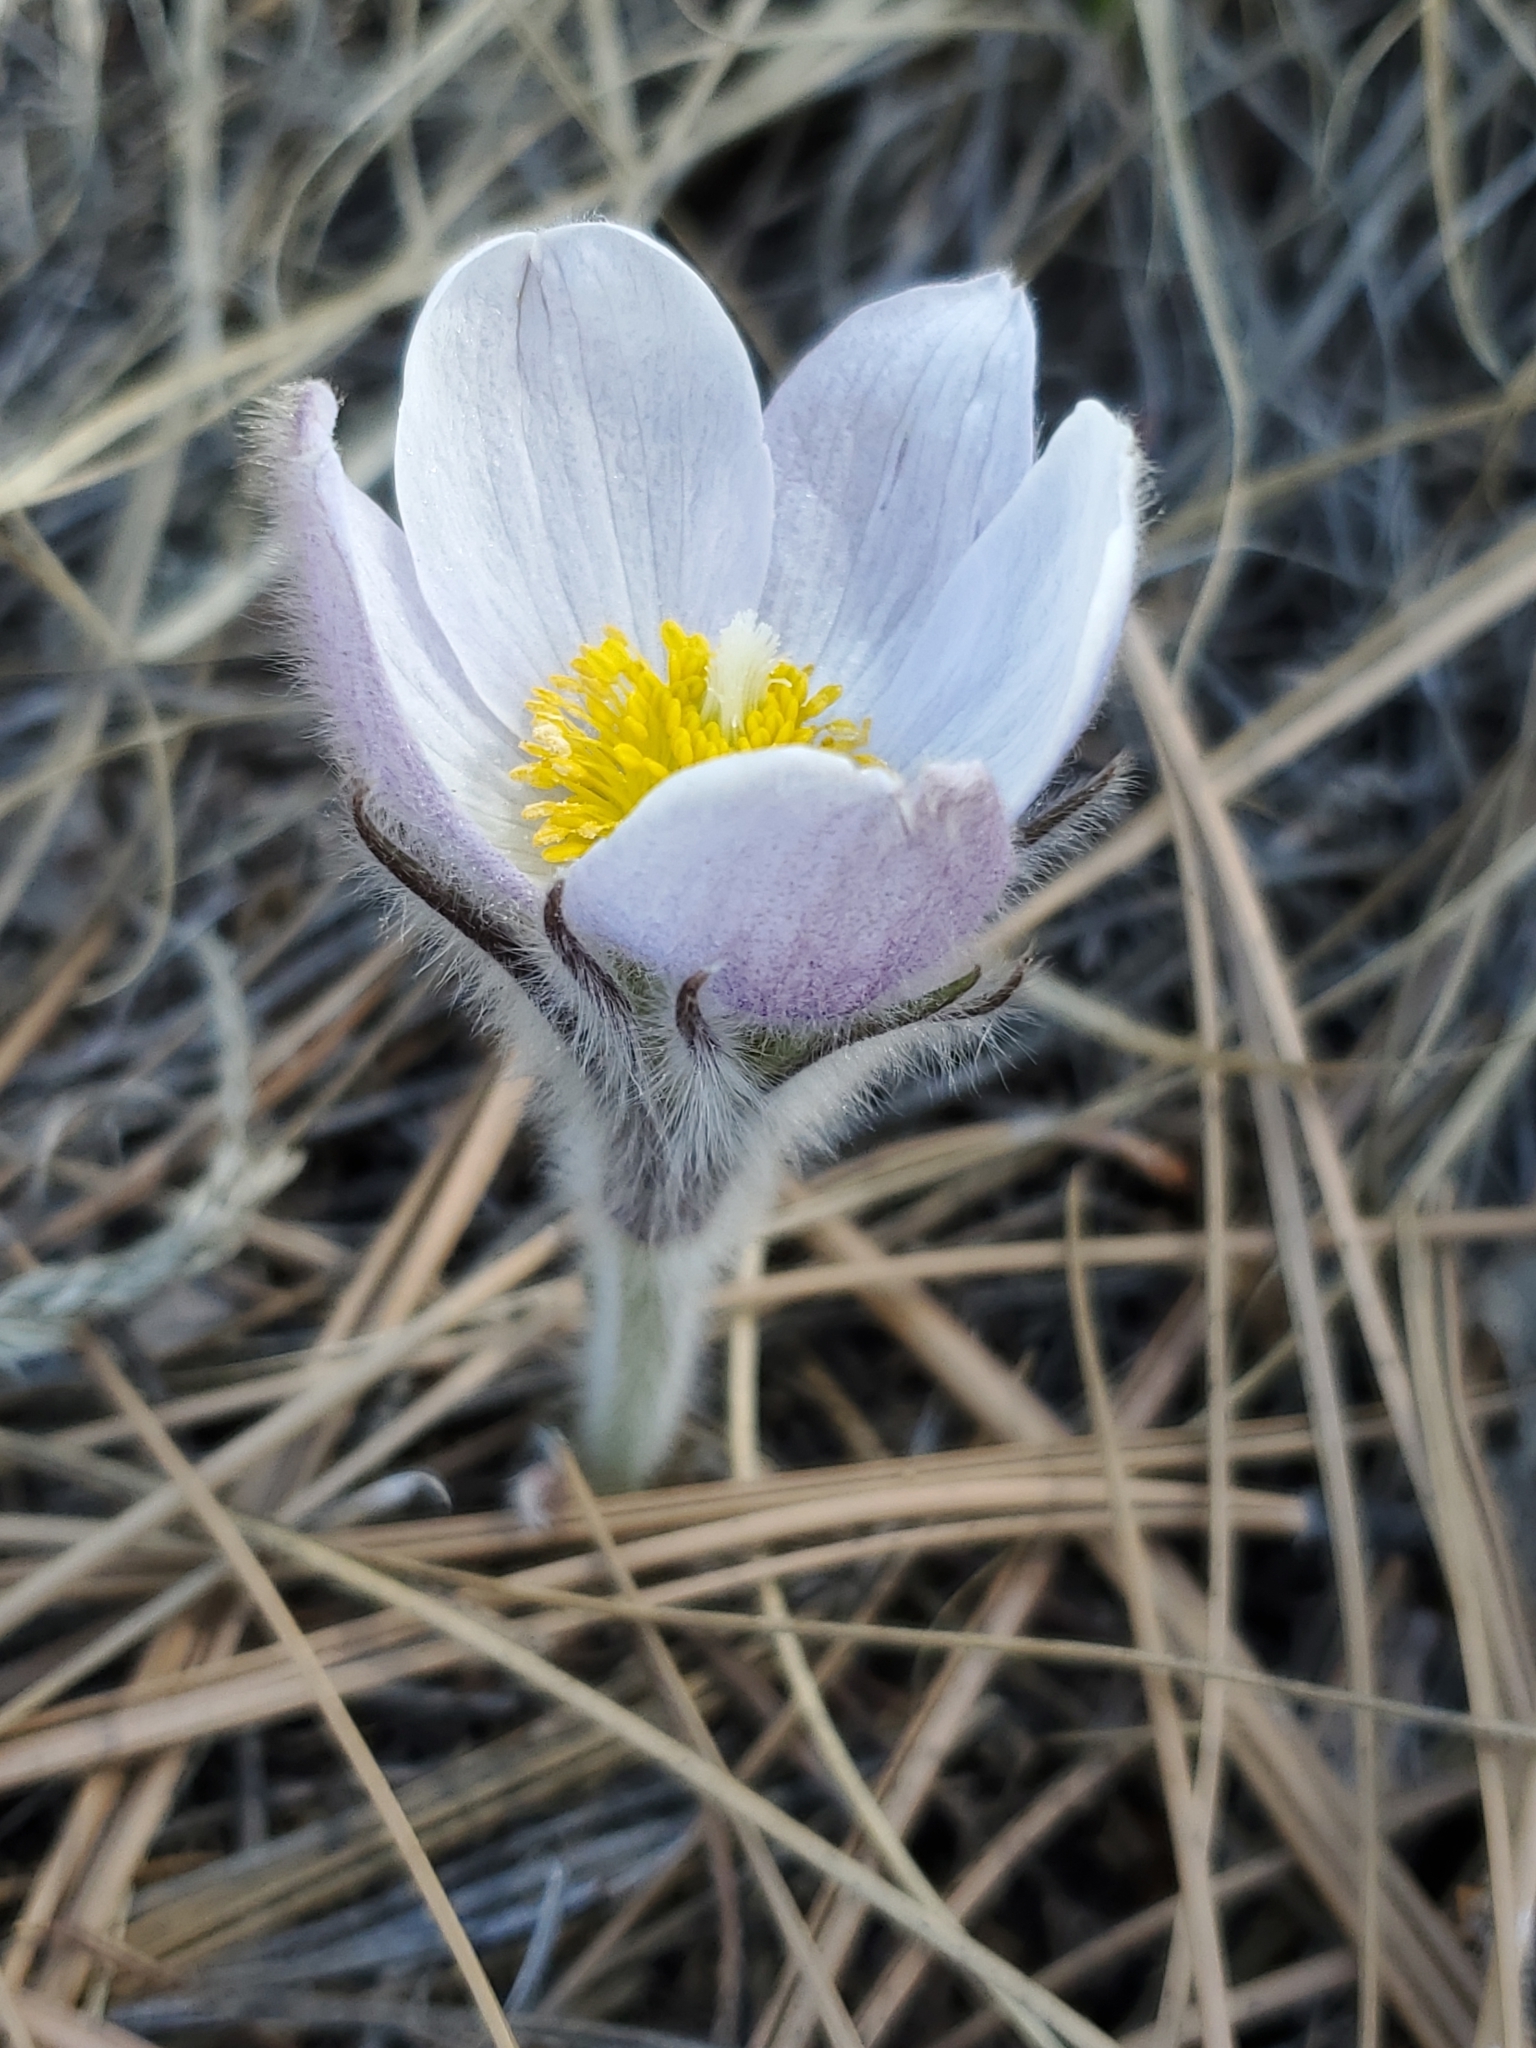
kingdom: Plantae
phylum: Tracheophyta
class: Magnoliopsida
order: Ranunculales
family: Ranunculaceae
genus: Pulsatilla
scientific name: Pulsatilla nuttalliana
